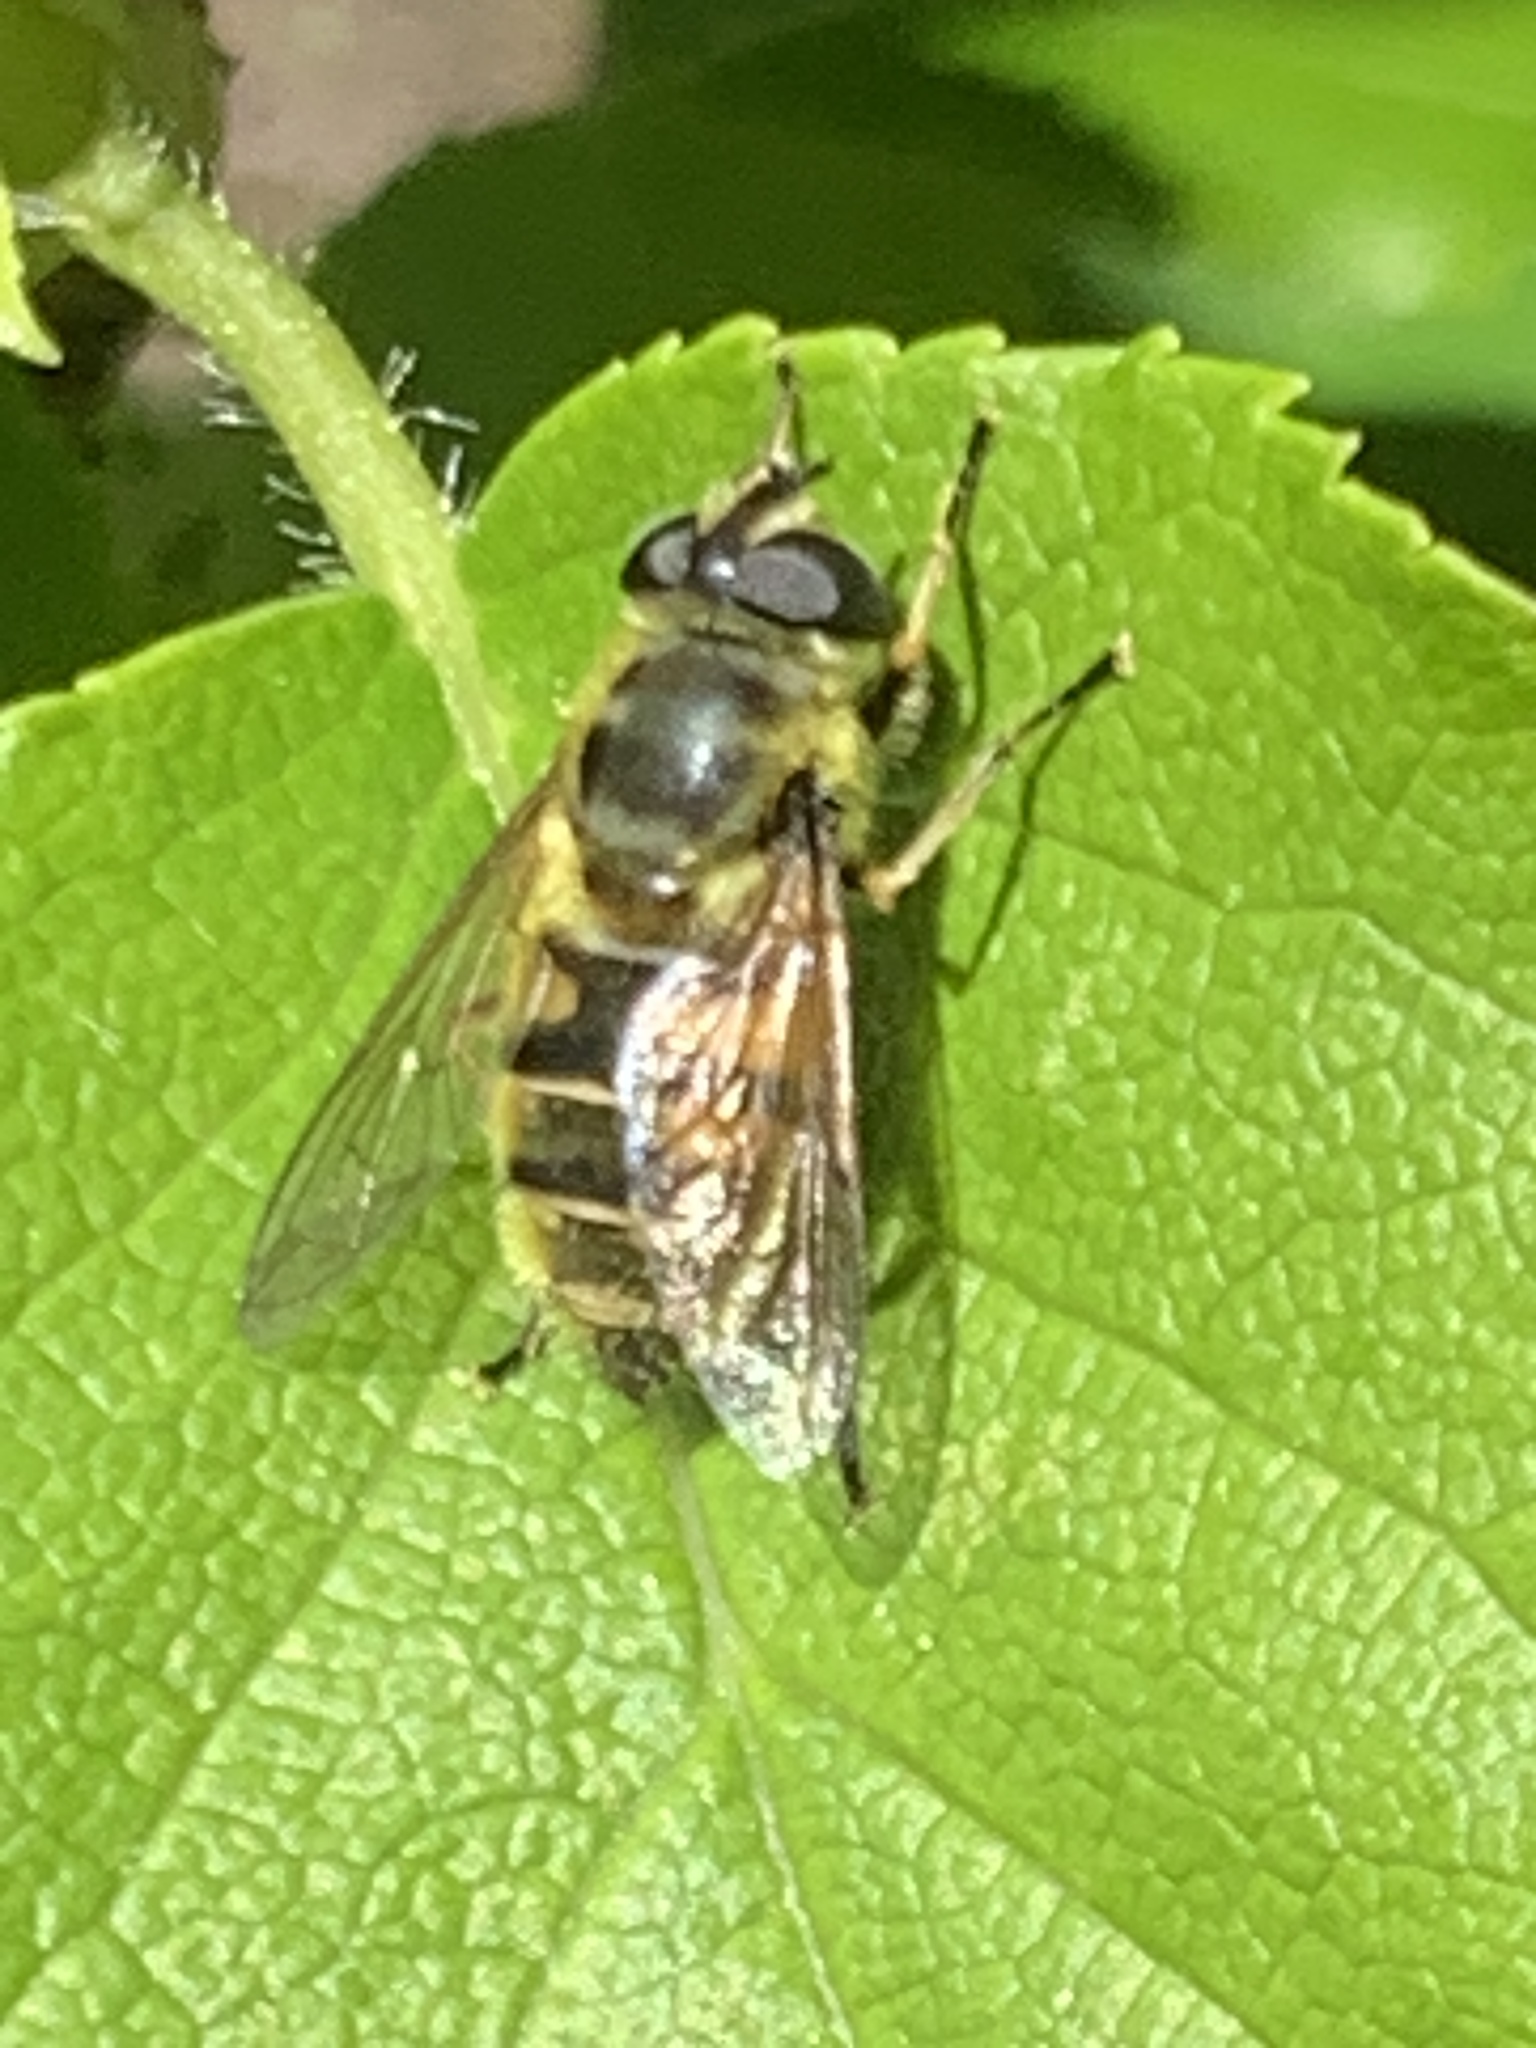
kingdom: Animalia
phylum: Arthropoda
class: Insecta
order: Diptera
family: Syrphidae
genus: Myathropa
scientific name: Myathropa florea
